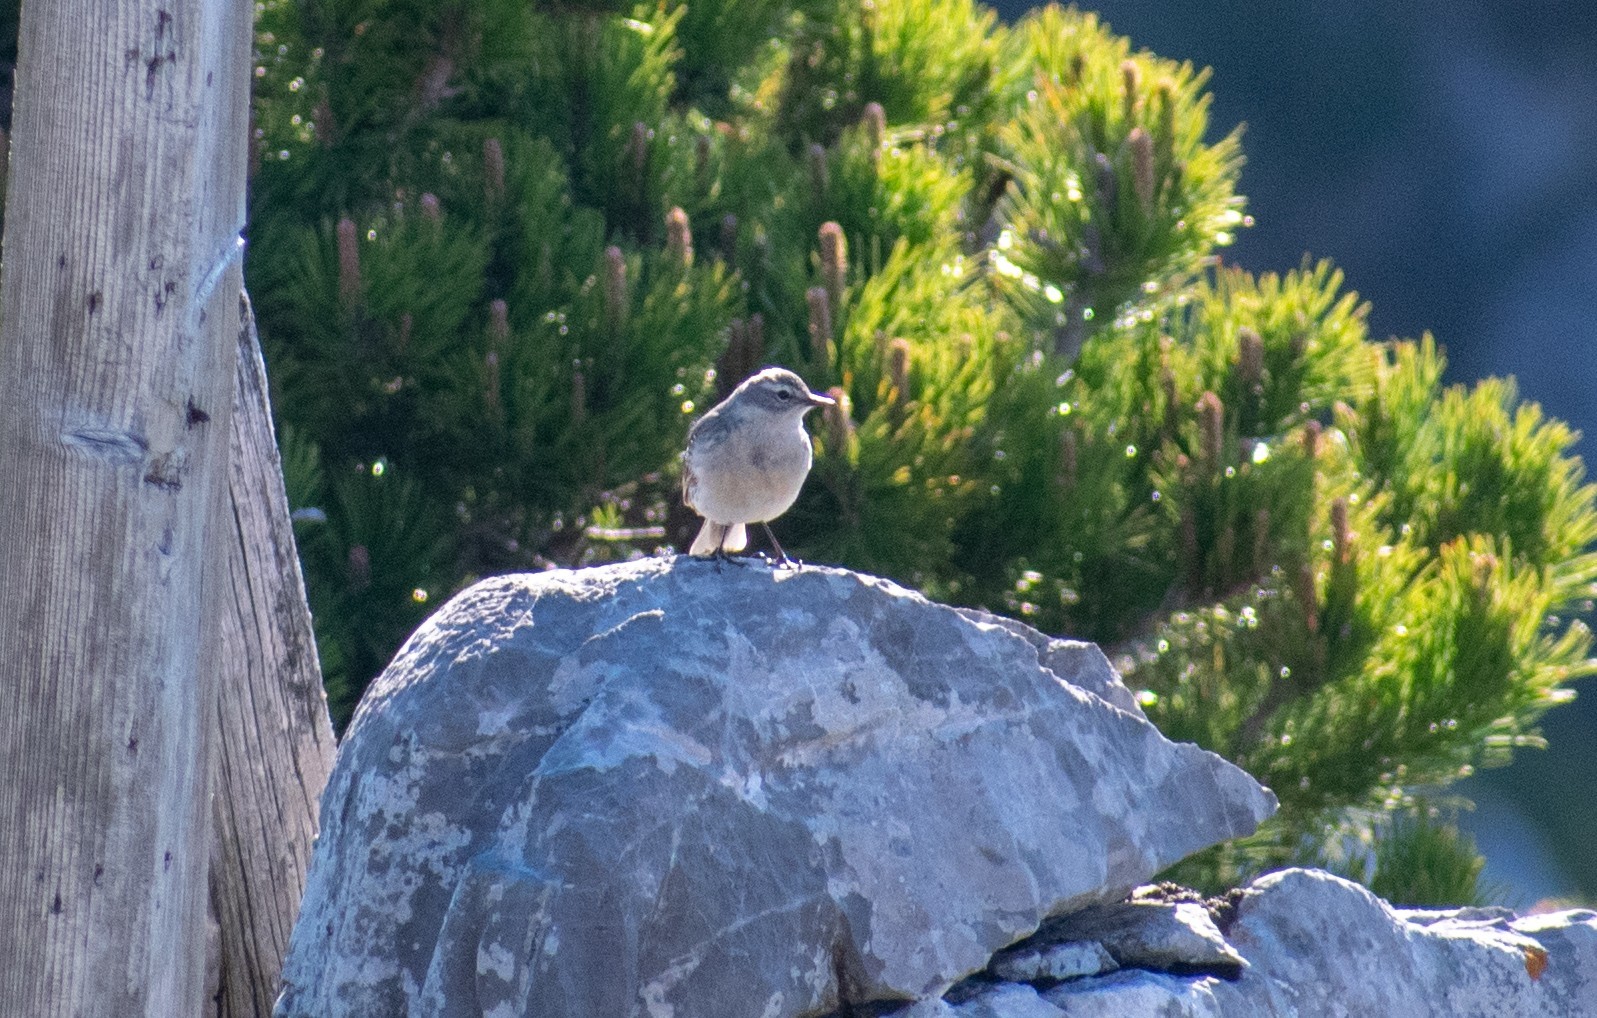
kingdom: Animalia
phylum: Chordata
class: Aves
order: Passeriformes
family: Motacillidae
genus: Anthus
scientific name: Anthus spinoletta
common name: Water pipit
